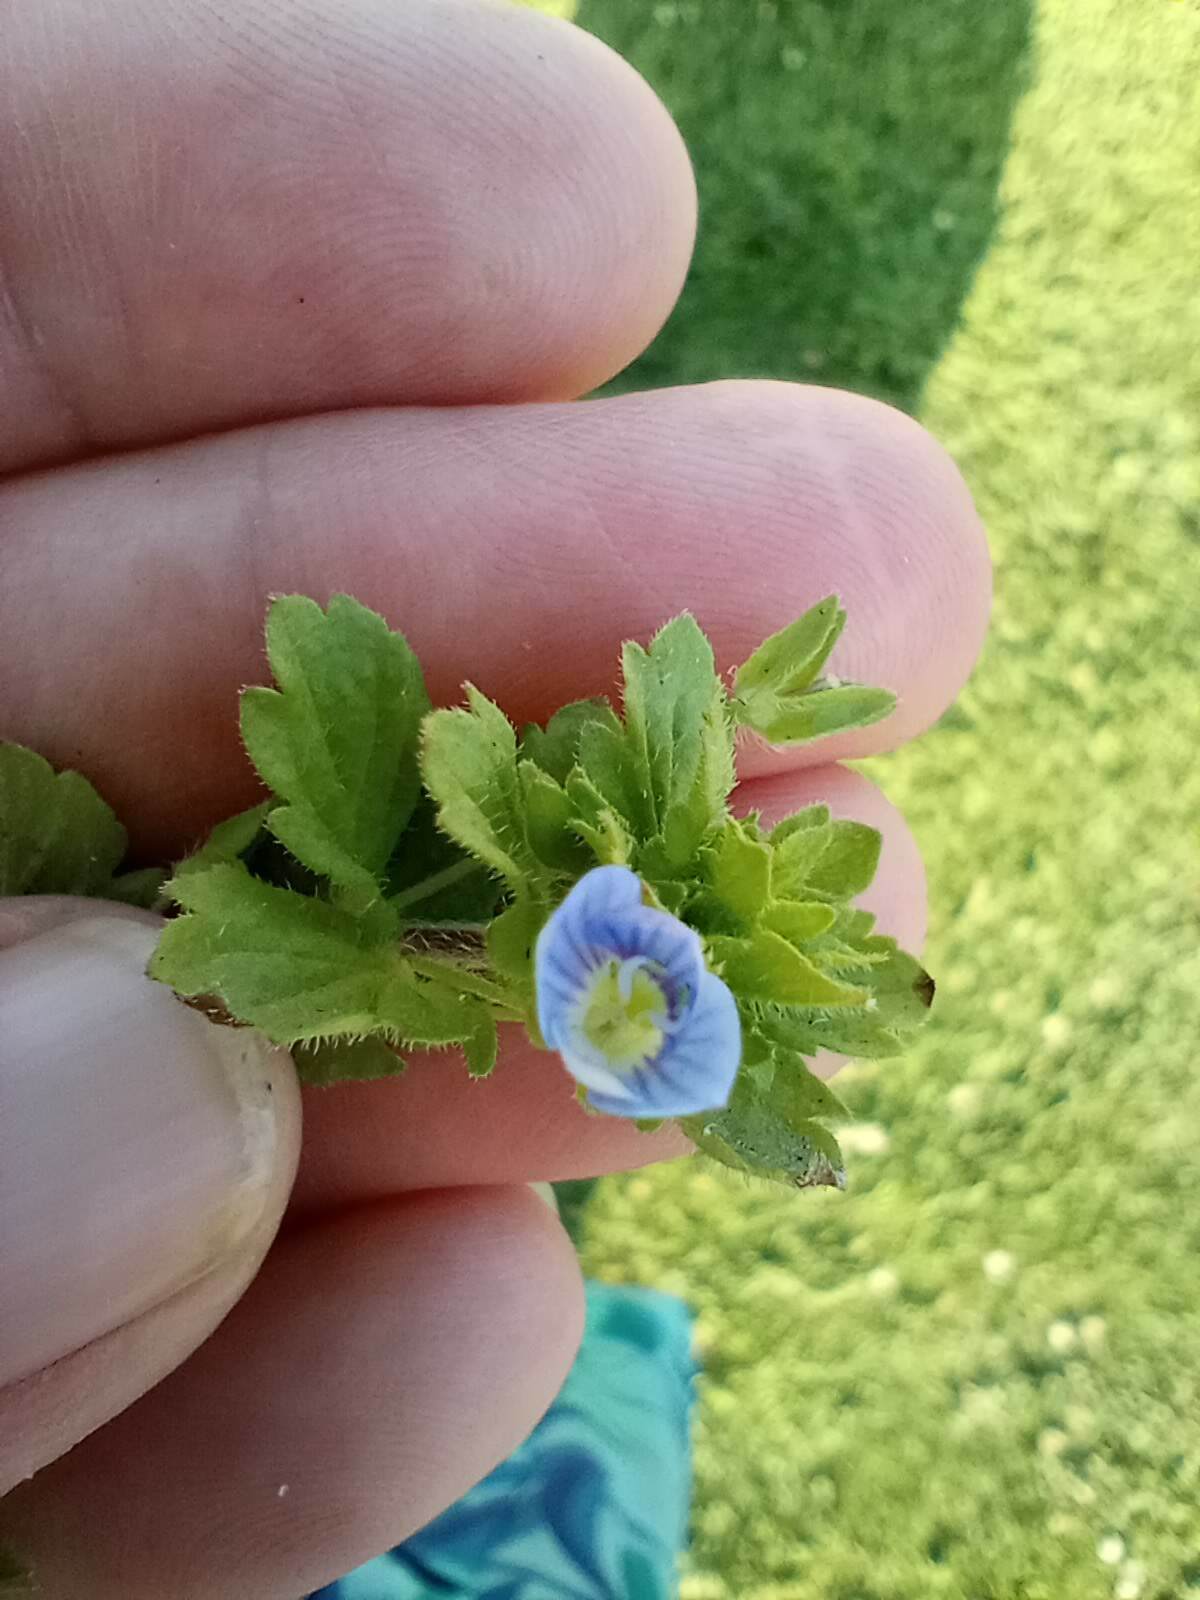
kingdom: Plantae
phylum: Tracheophyta
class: Magnoliopsida
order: Lamiales
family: Plantaginaceae
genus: Veronica
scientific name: Veronica persica
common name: Common field-speedwell
